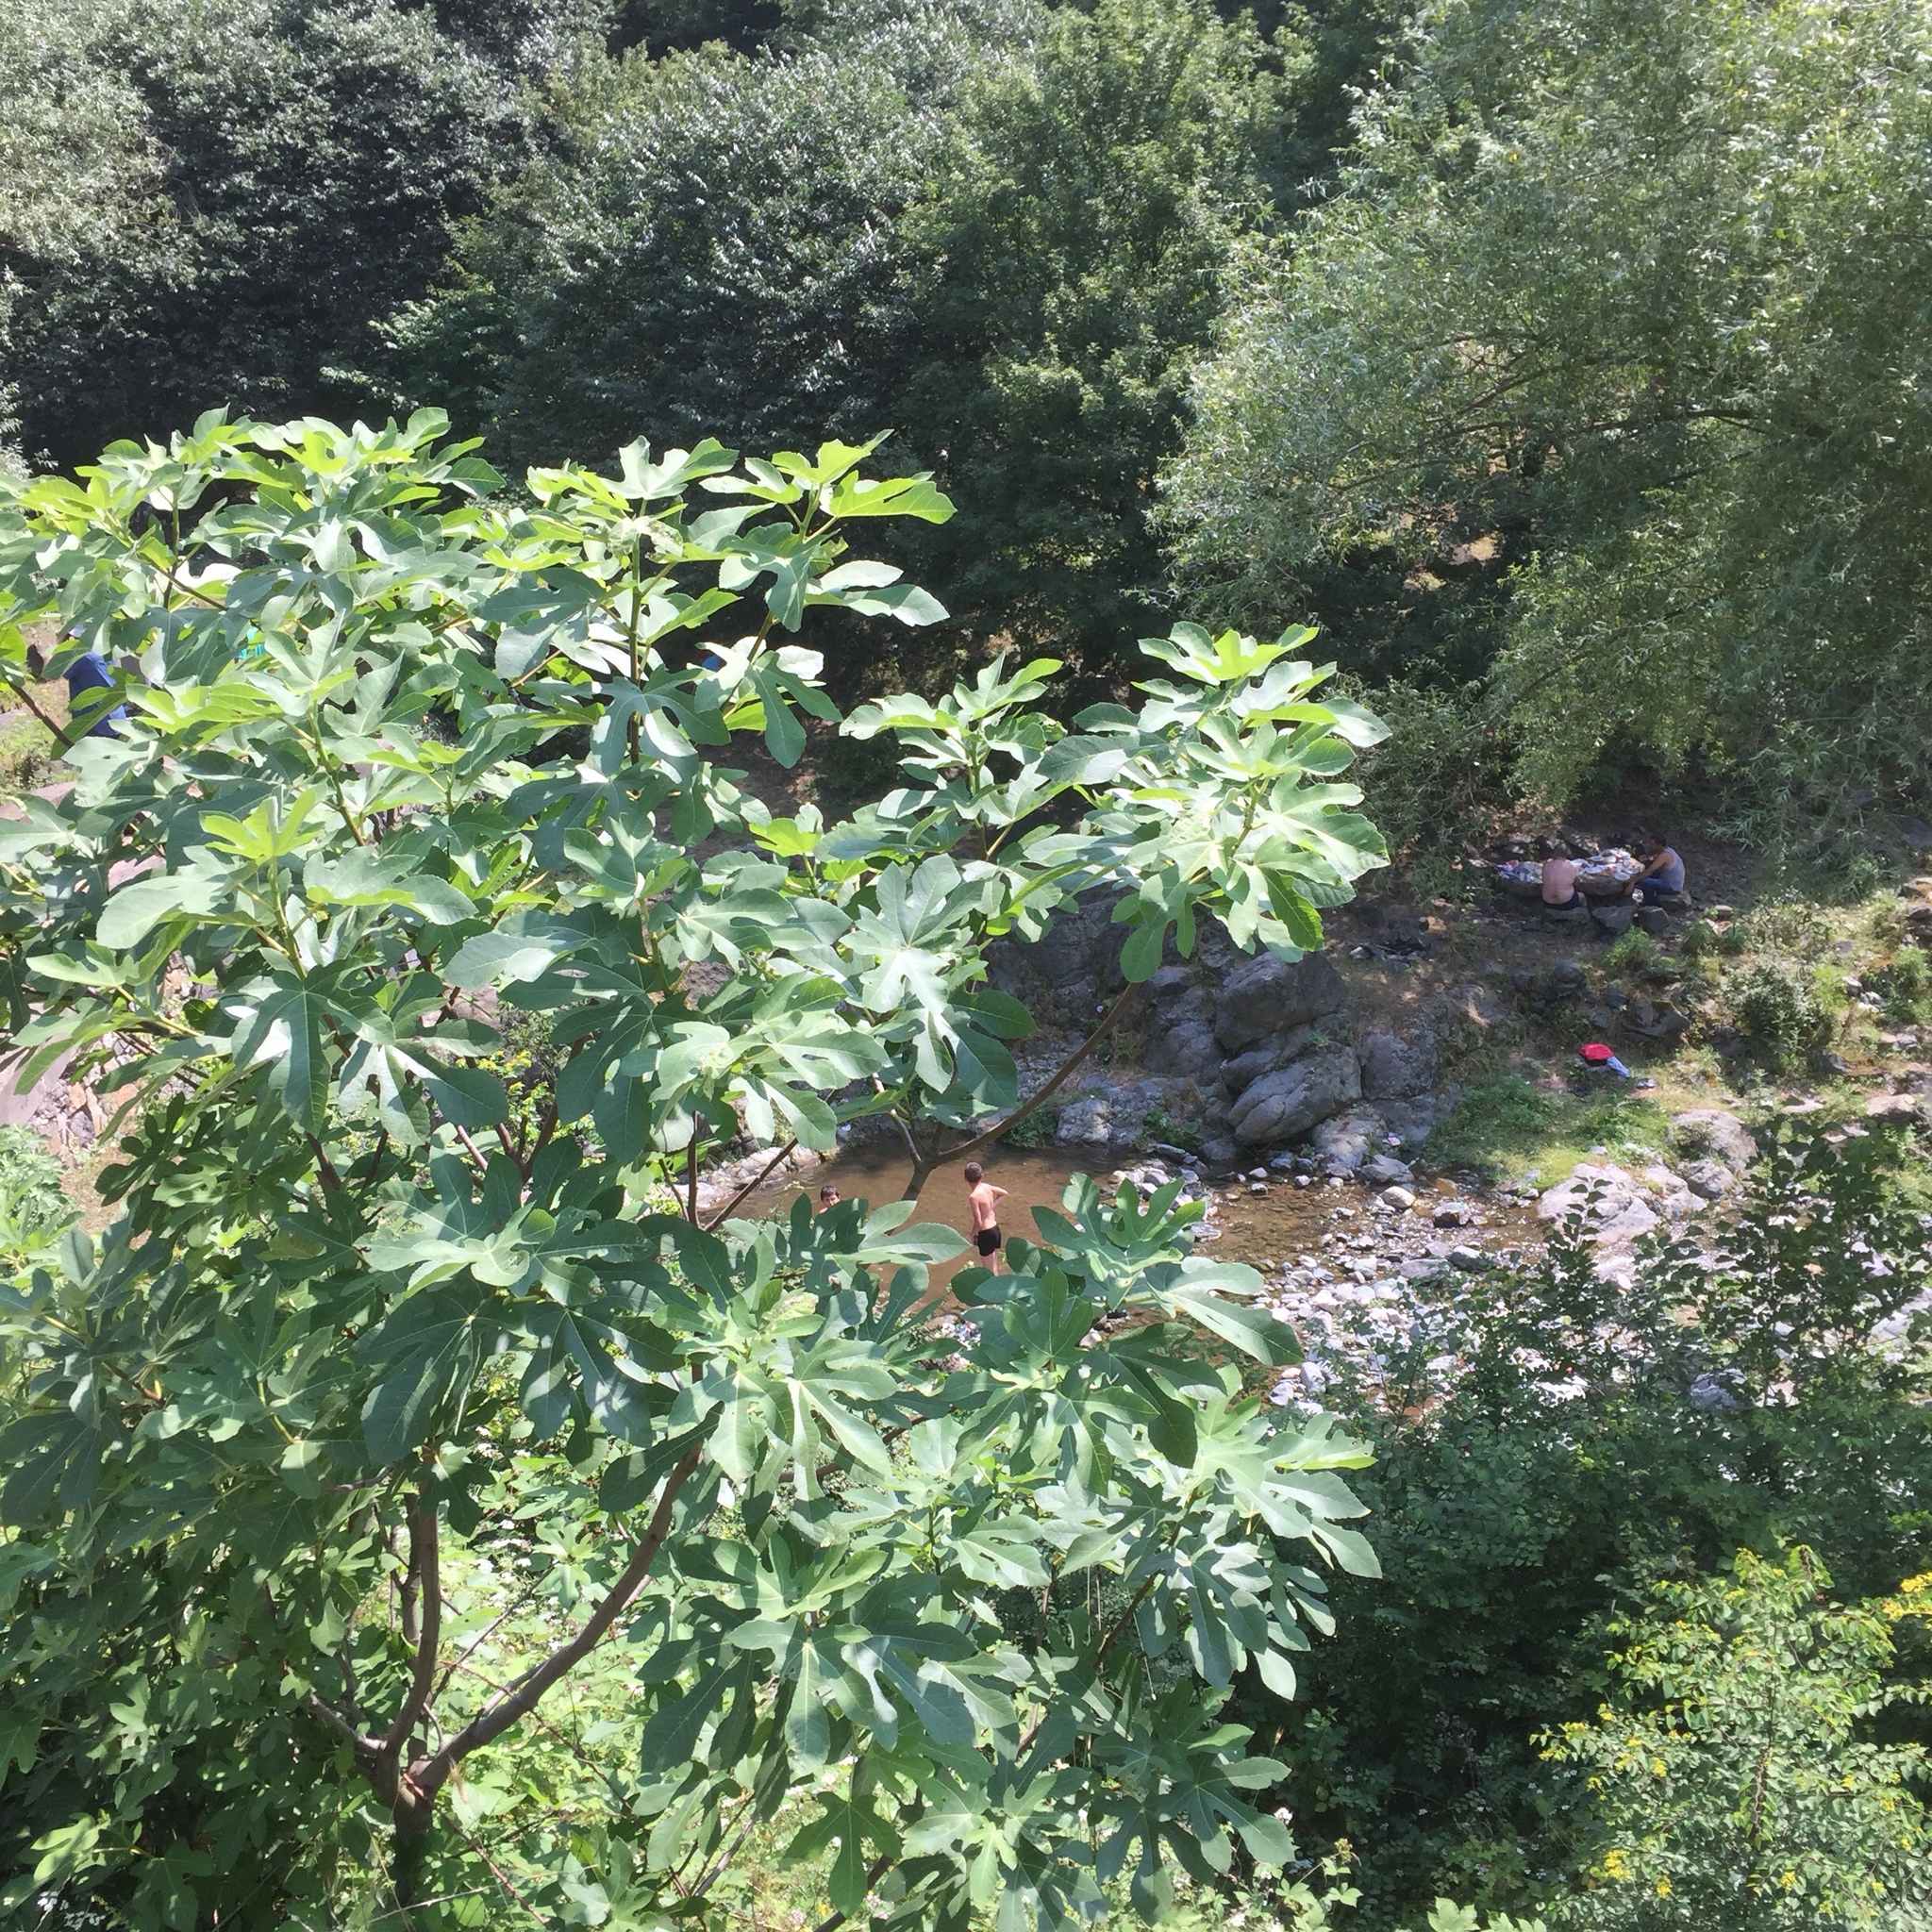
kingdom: Plantae
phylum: Tracheophyta
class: Magnoliopsida
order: Rosales
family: Moraceae
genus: Ficus
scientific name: Ficus carica
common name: Fig
